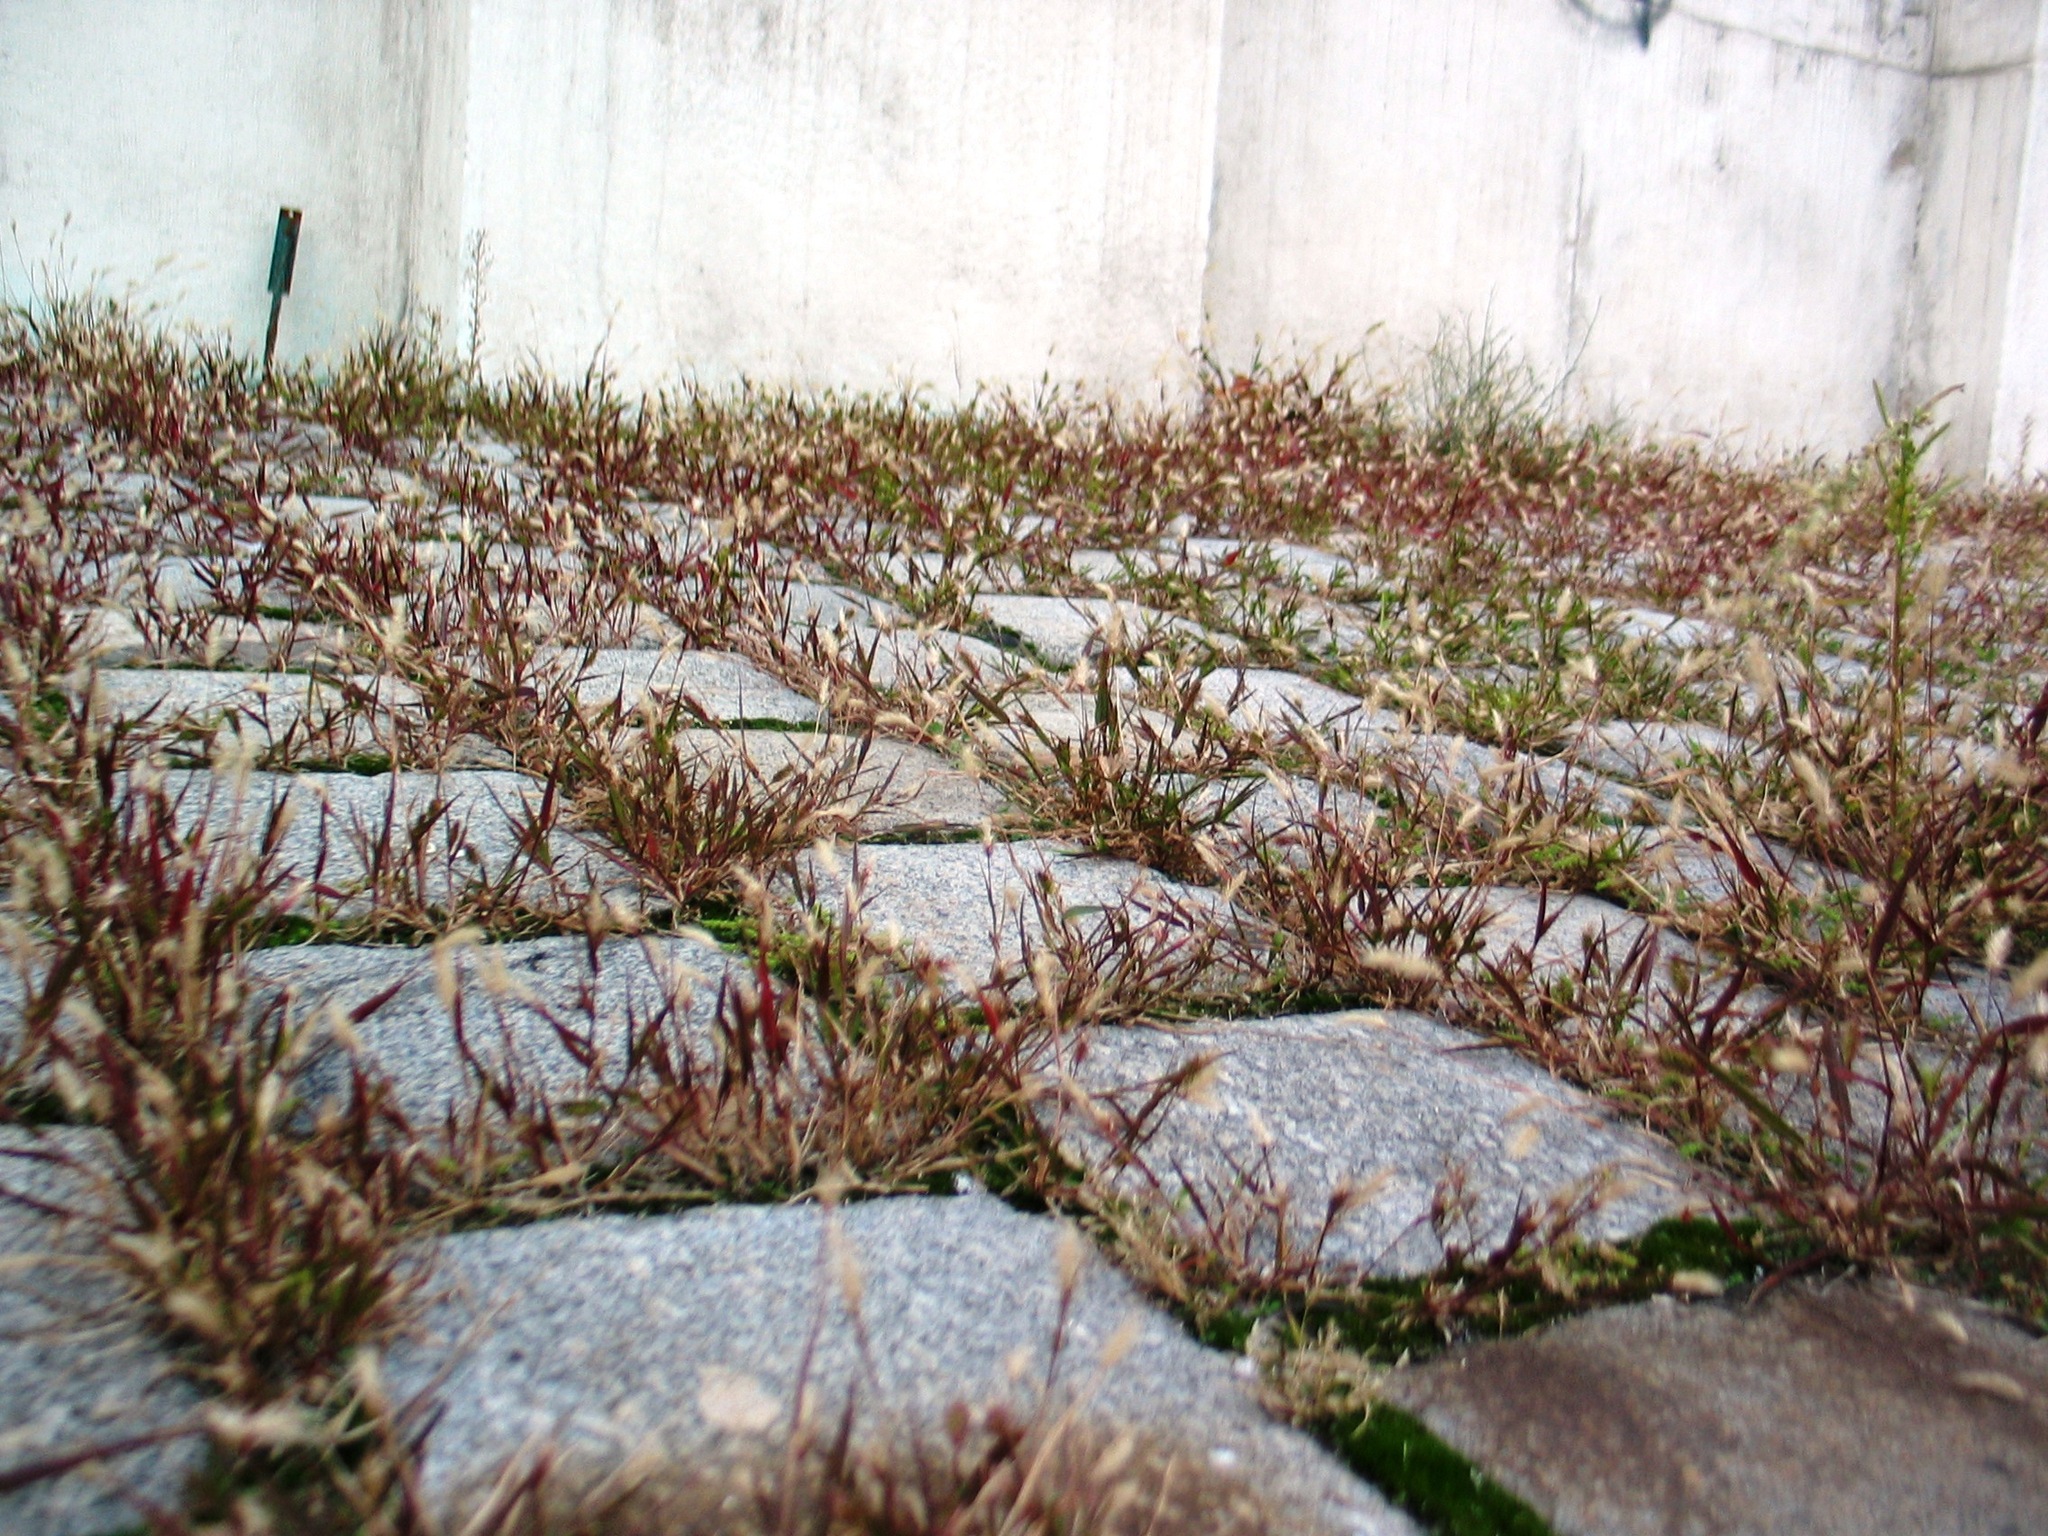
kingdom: Plantae
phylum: Tracheophyta
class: Liliopsida
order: Poales
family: Poaceae
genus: Setaria
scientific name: Setaria pumila
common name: Yellow bristle-grass
